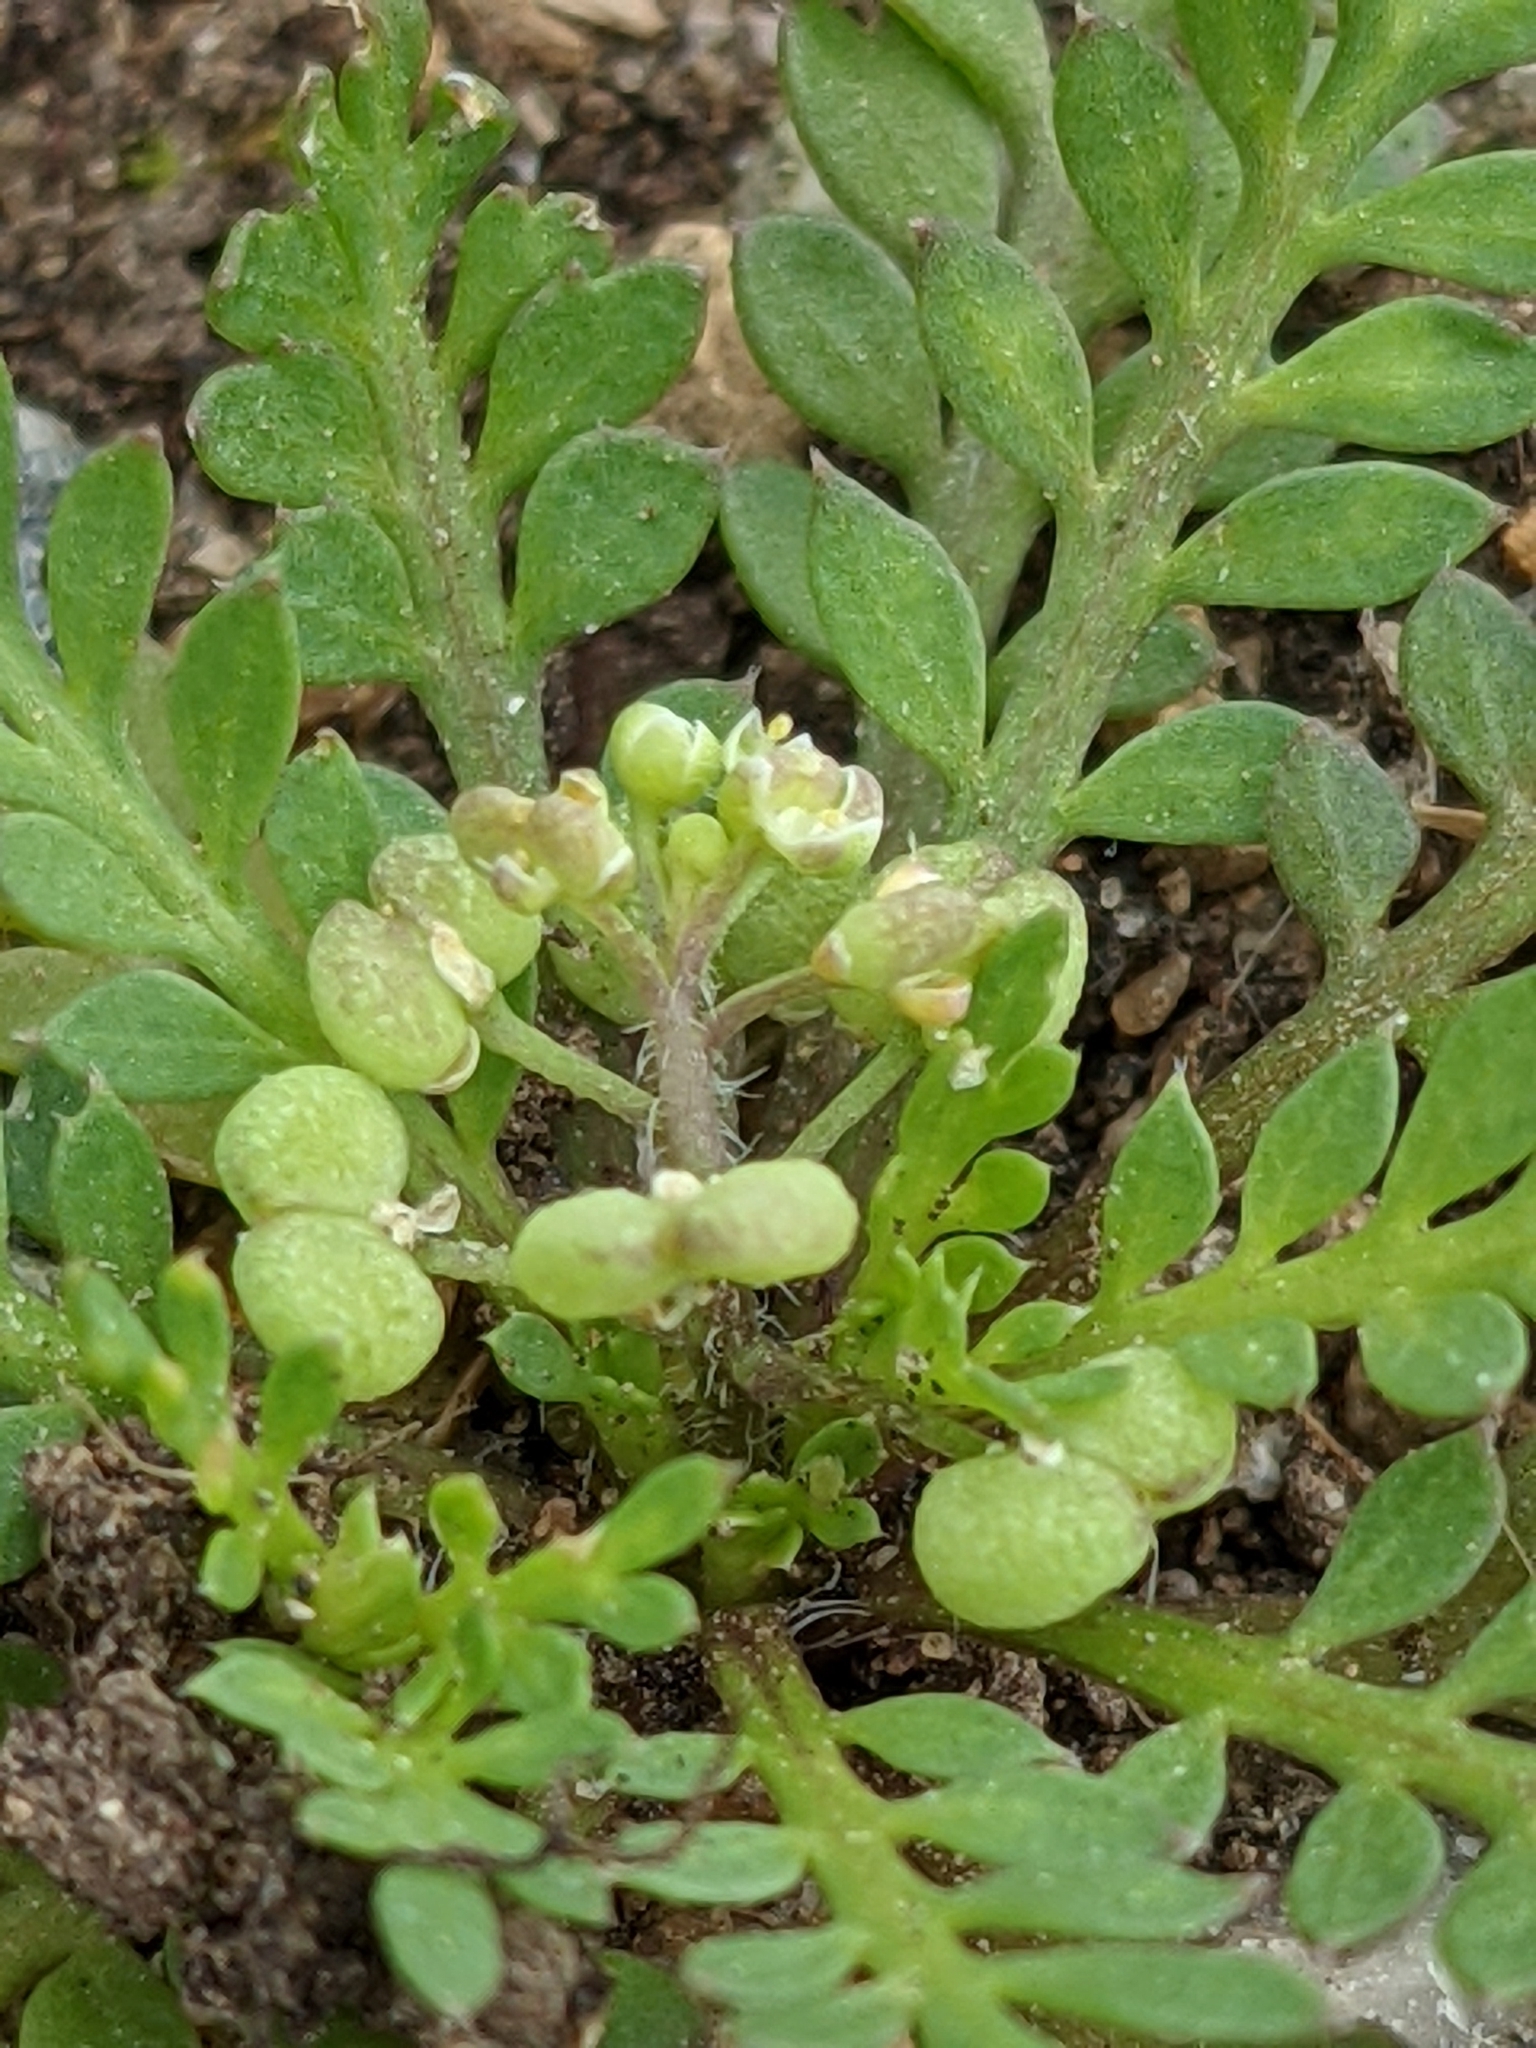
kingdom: Plantae
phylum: Tracheophyta
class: Magnoliopsida
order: Brassicales
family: Brassicaceae
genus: Lepidium
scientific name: Lepidium didymum
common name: Lesser swinecress
